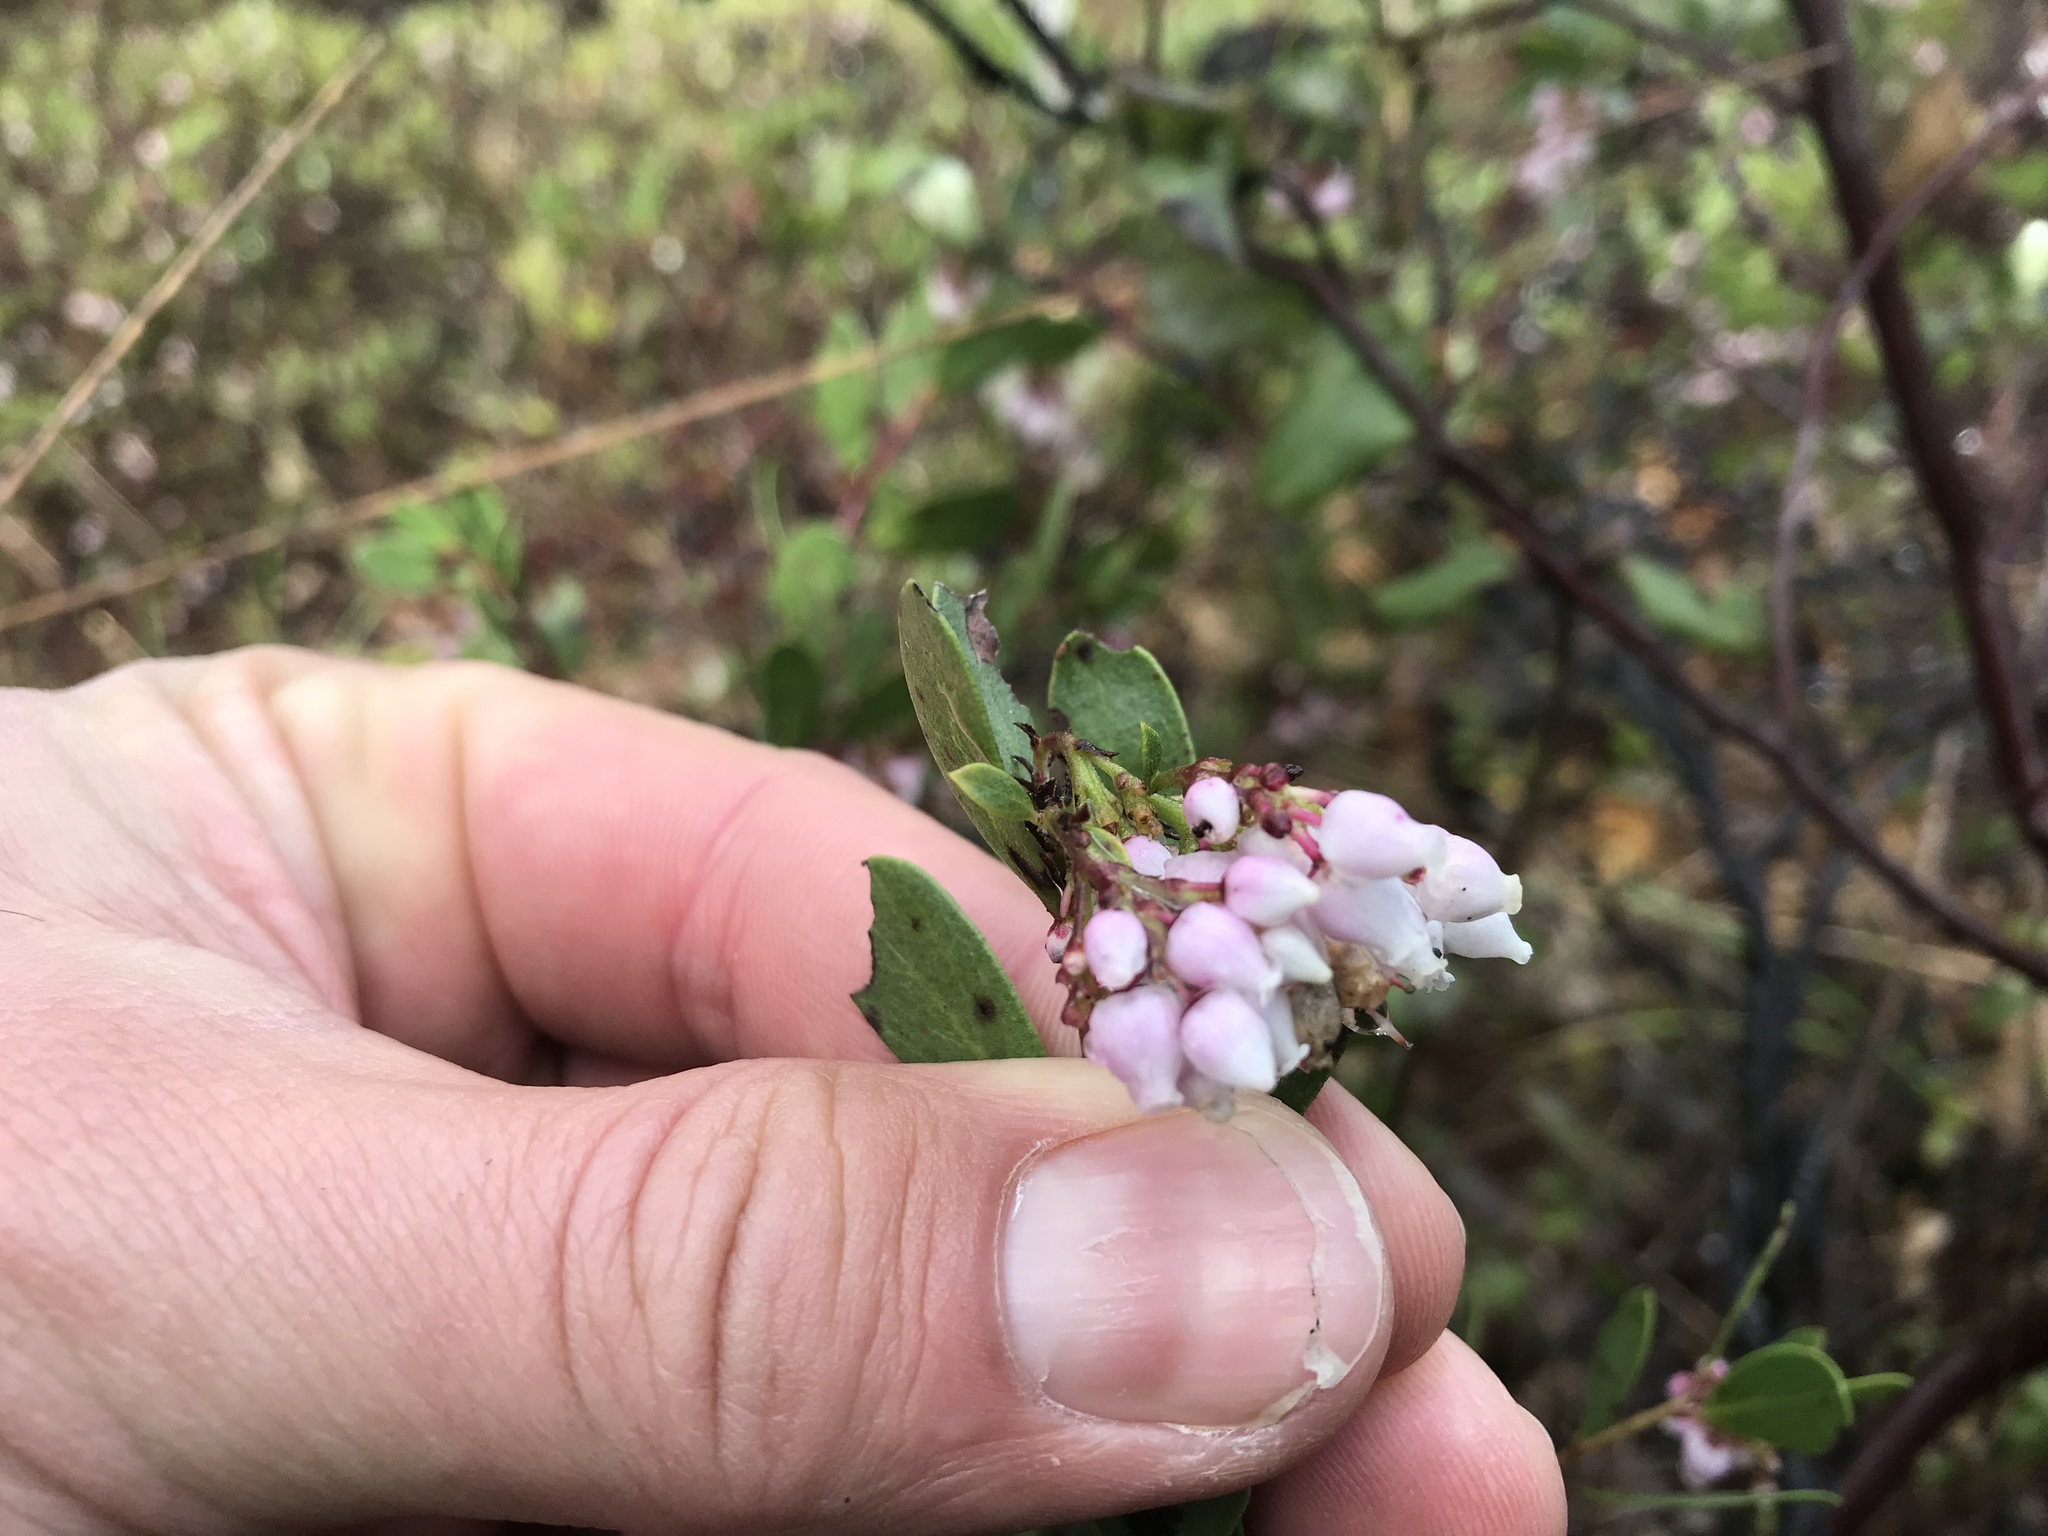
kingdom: Plantae
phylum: Tracheophyta
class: Magnoliopsida
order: Ericales
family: Ericaceae
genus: Arctostaphylos
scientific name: Arctostaphylos densiflora
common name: Vine hill manzanita
